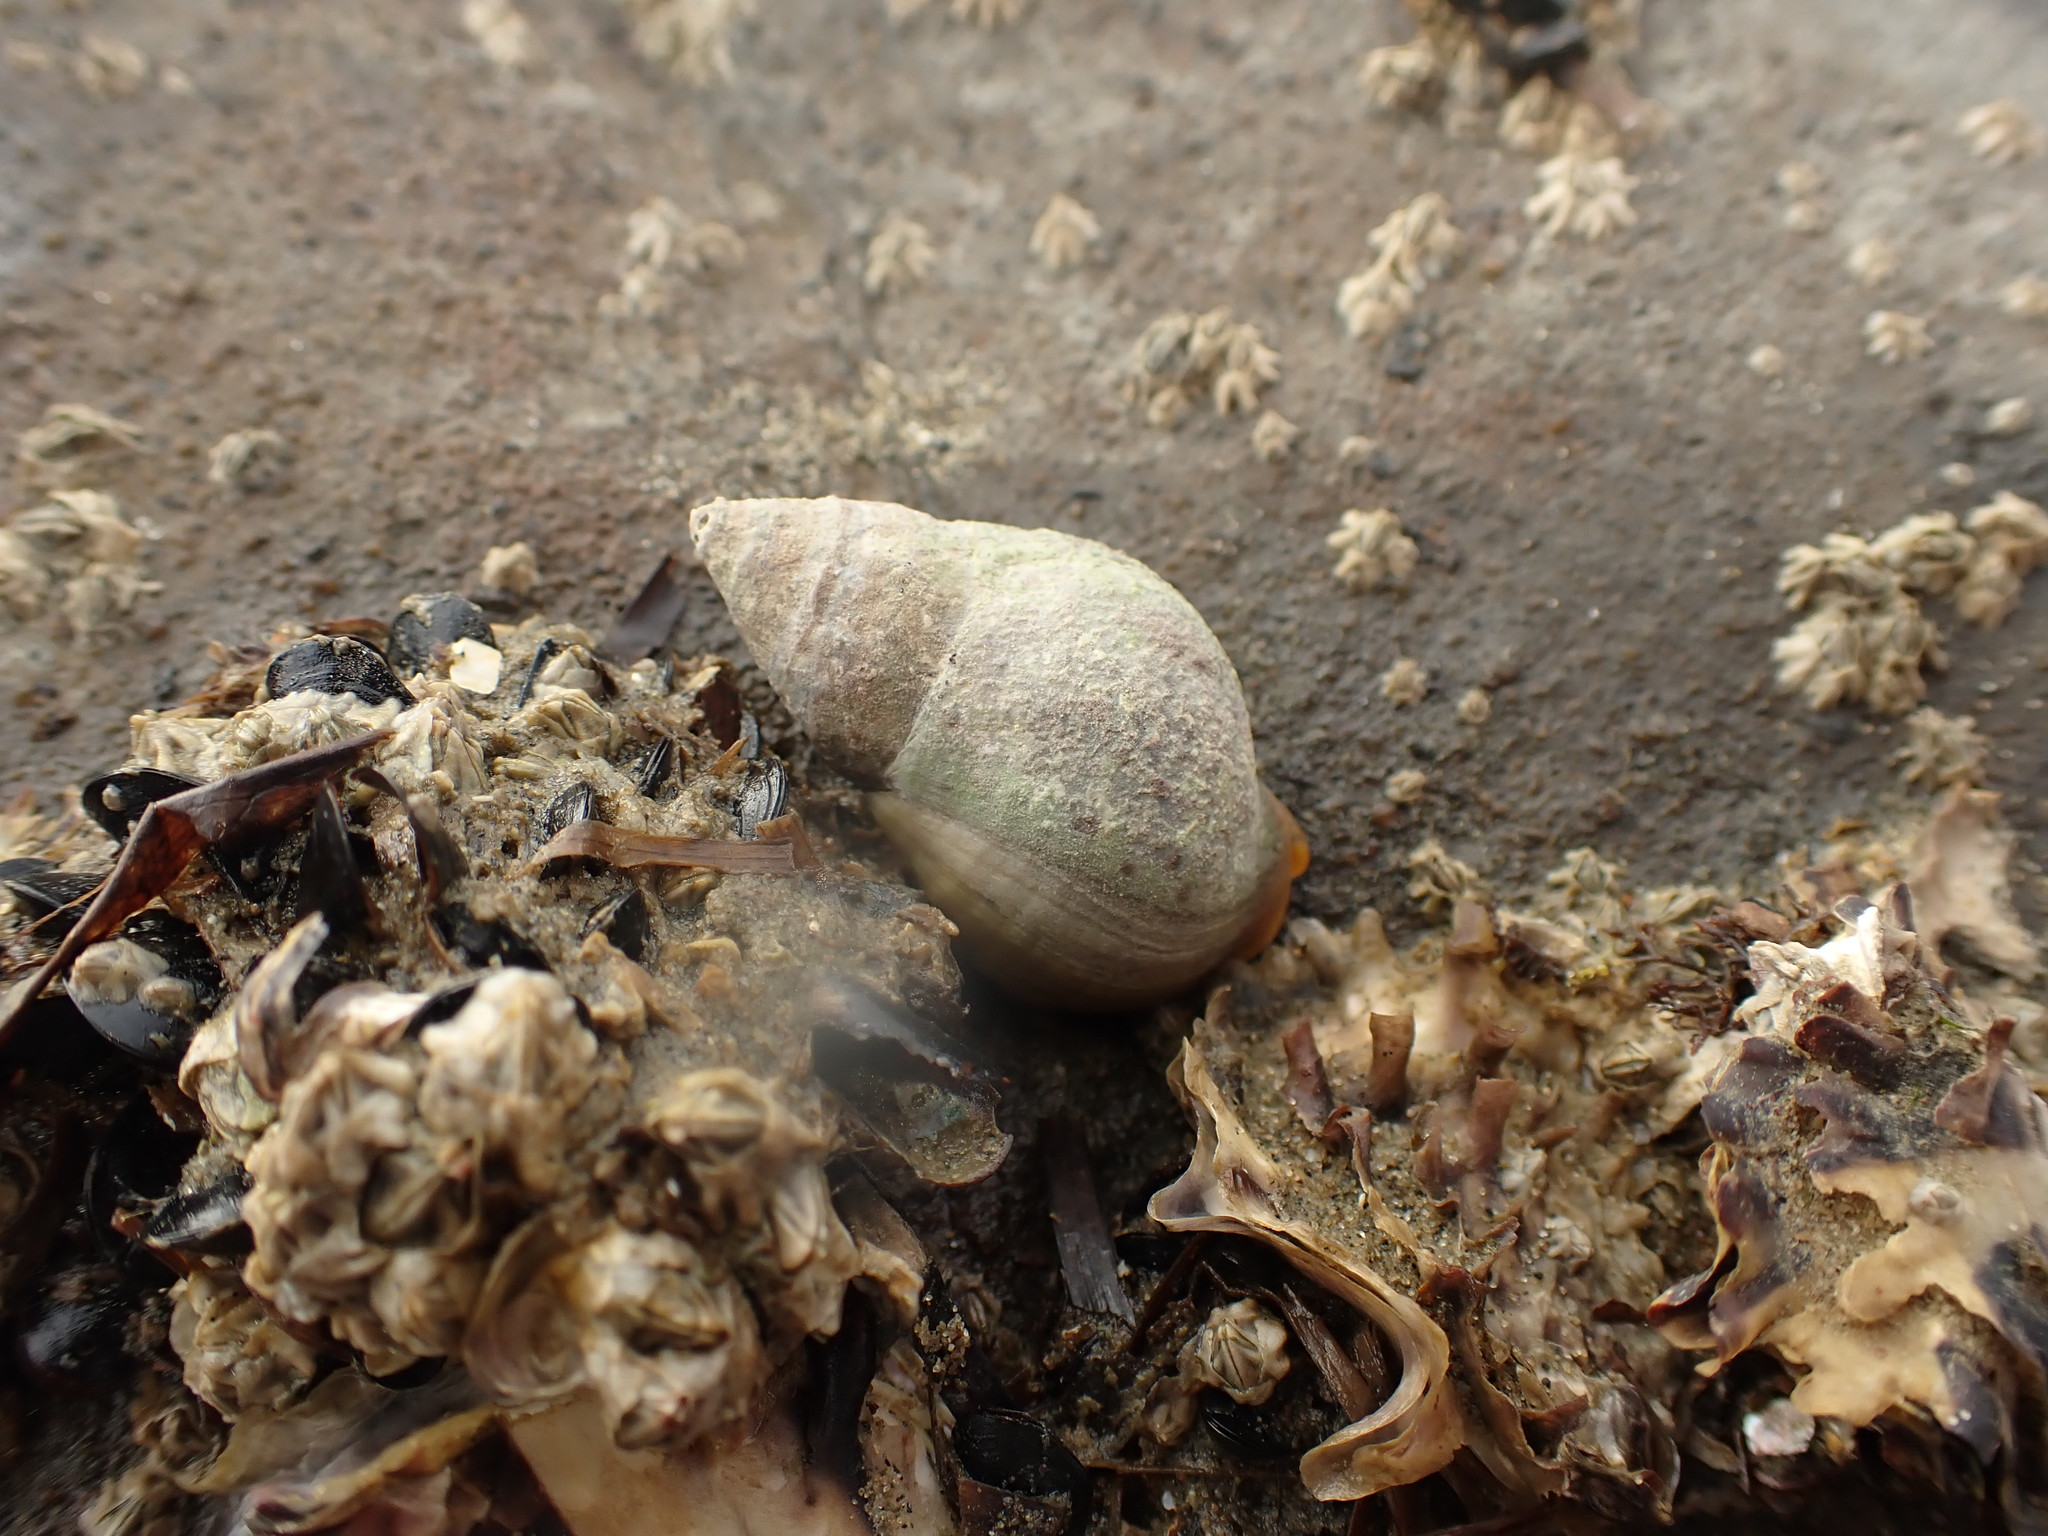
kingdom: Animalia
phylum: Mollusca
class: Gastropoda
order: Neogastropoda
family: Cominellidae
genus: Cominella
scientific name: Cominella maculosa
